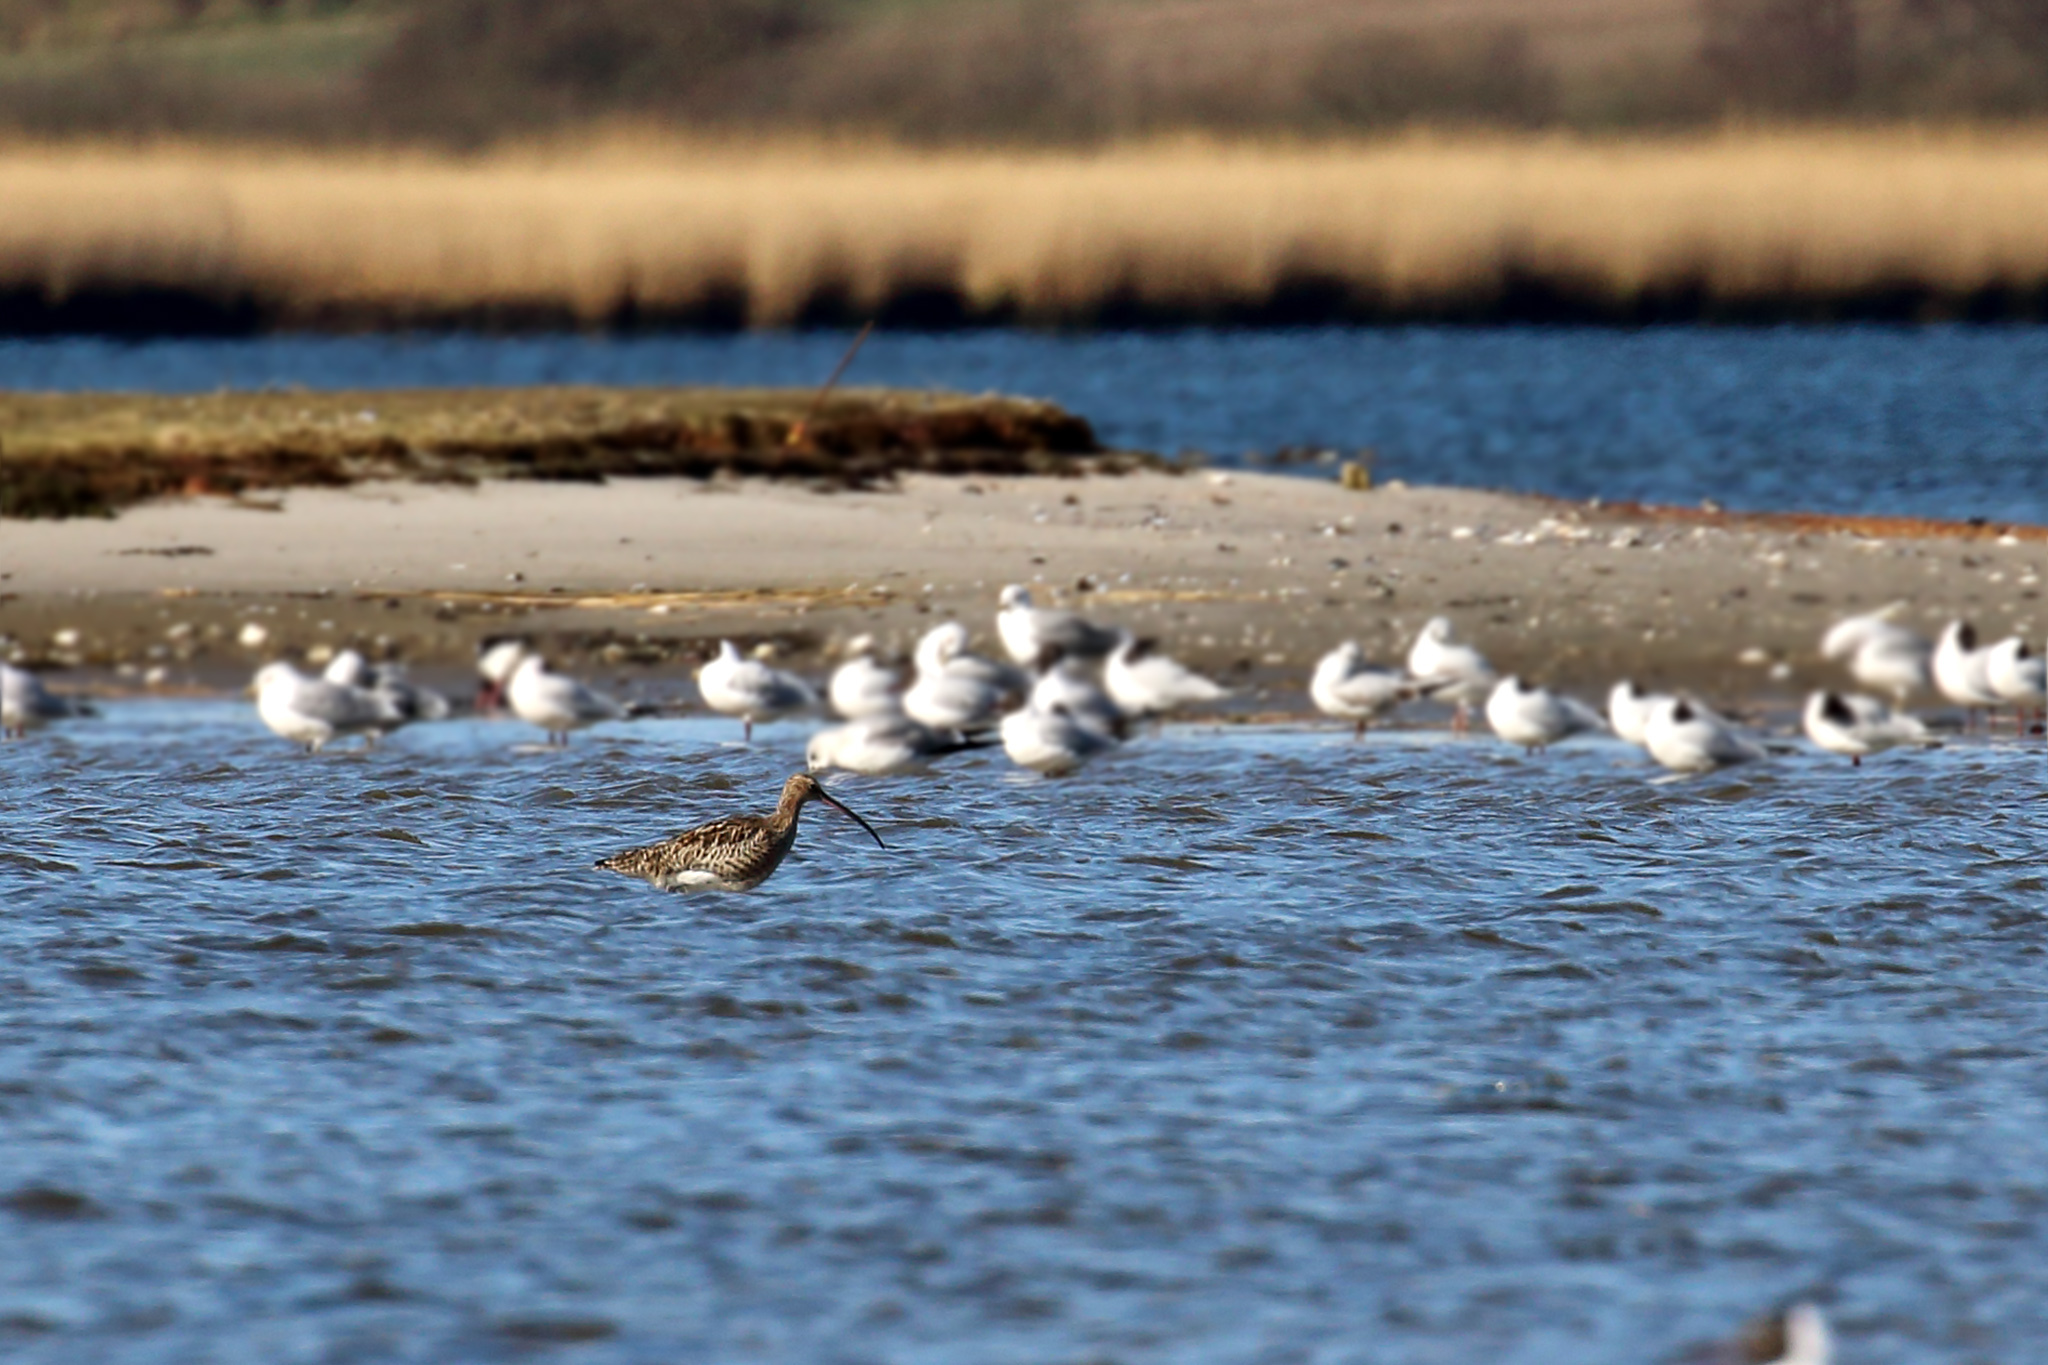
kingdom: Animalia
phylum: Chordata
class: Aves
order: Charadriiformes
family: Scolopacidae
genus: Numenius
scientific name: Numenius arquata
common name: Eurasian curlew
